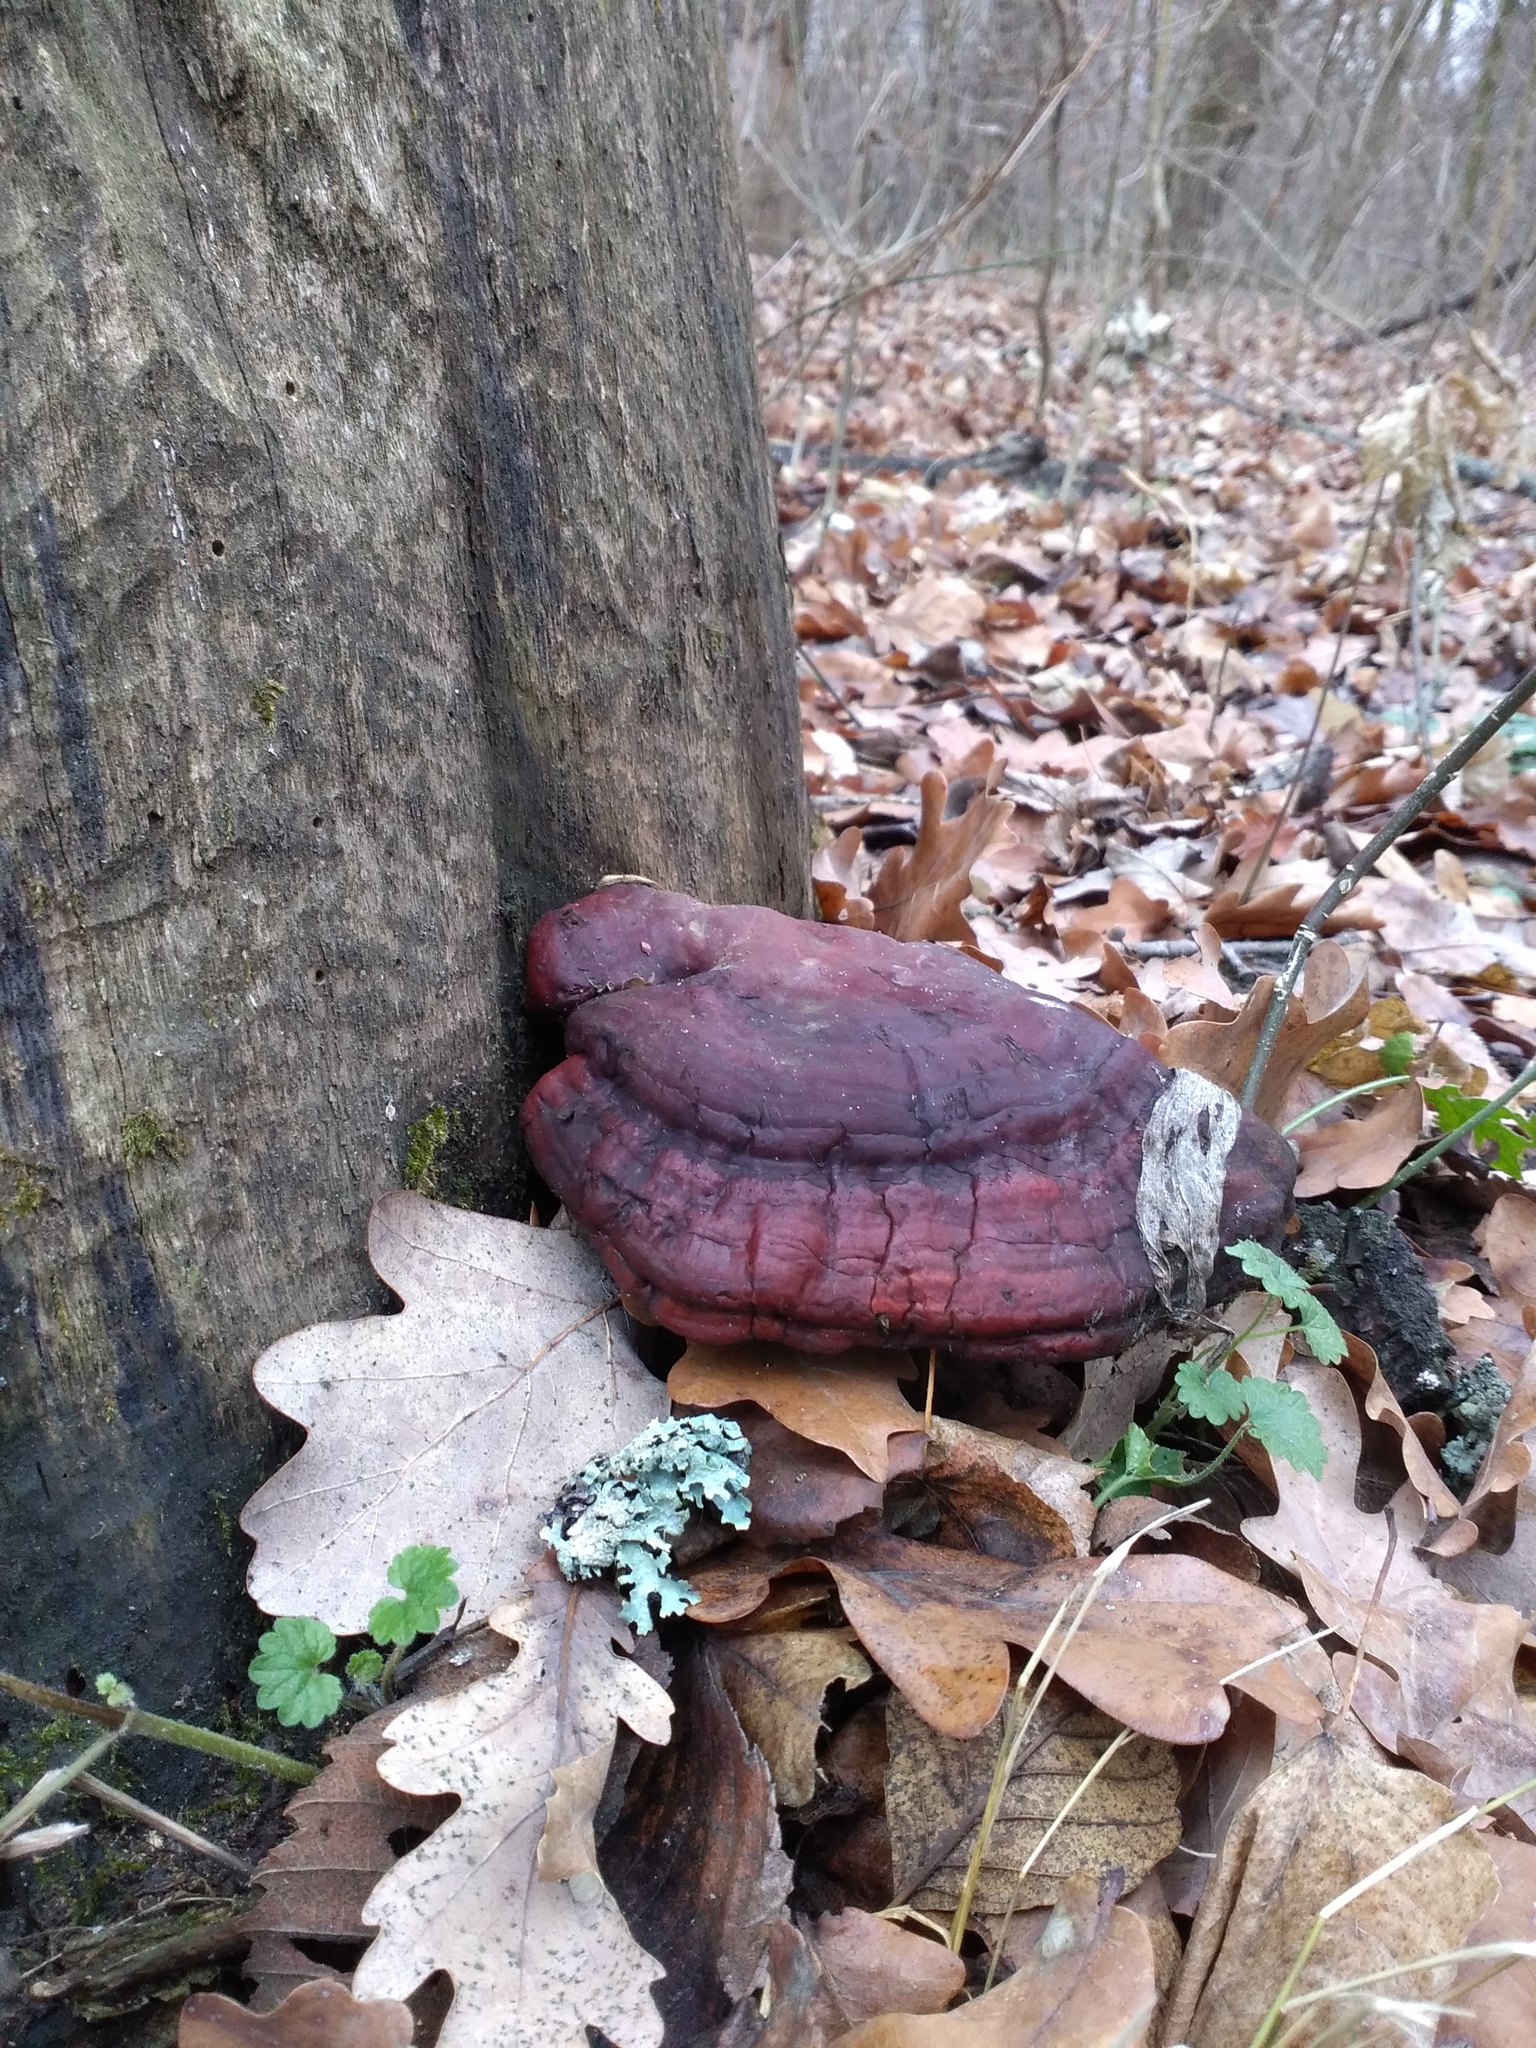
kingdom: Fungi
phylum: Basidiomycota
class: Agaricomycetes
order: Polyporales
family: Polyporaceae
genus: Ganoderma
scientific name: Ganoderma lucidum
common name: Lacquered bracket
